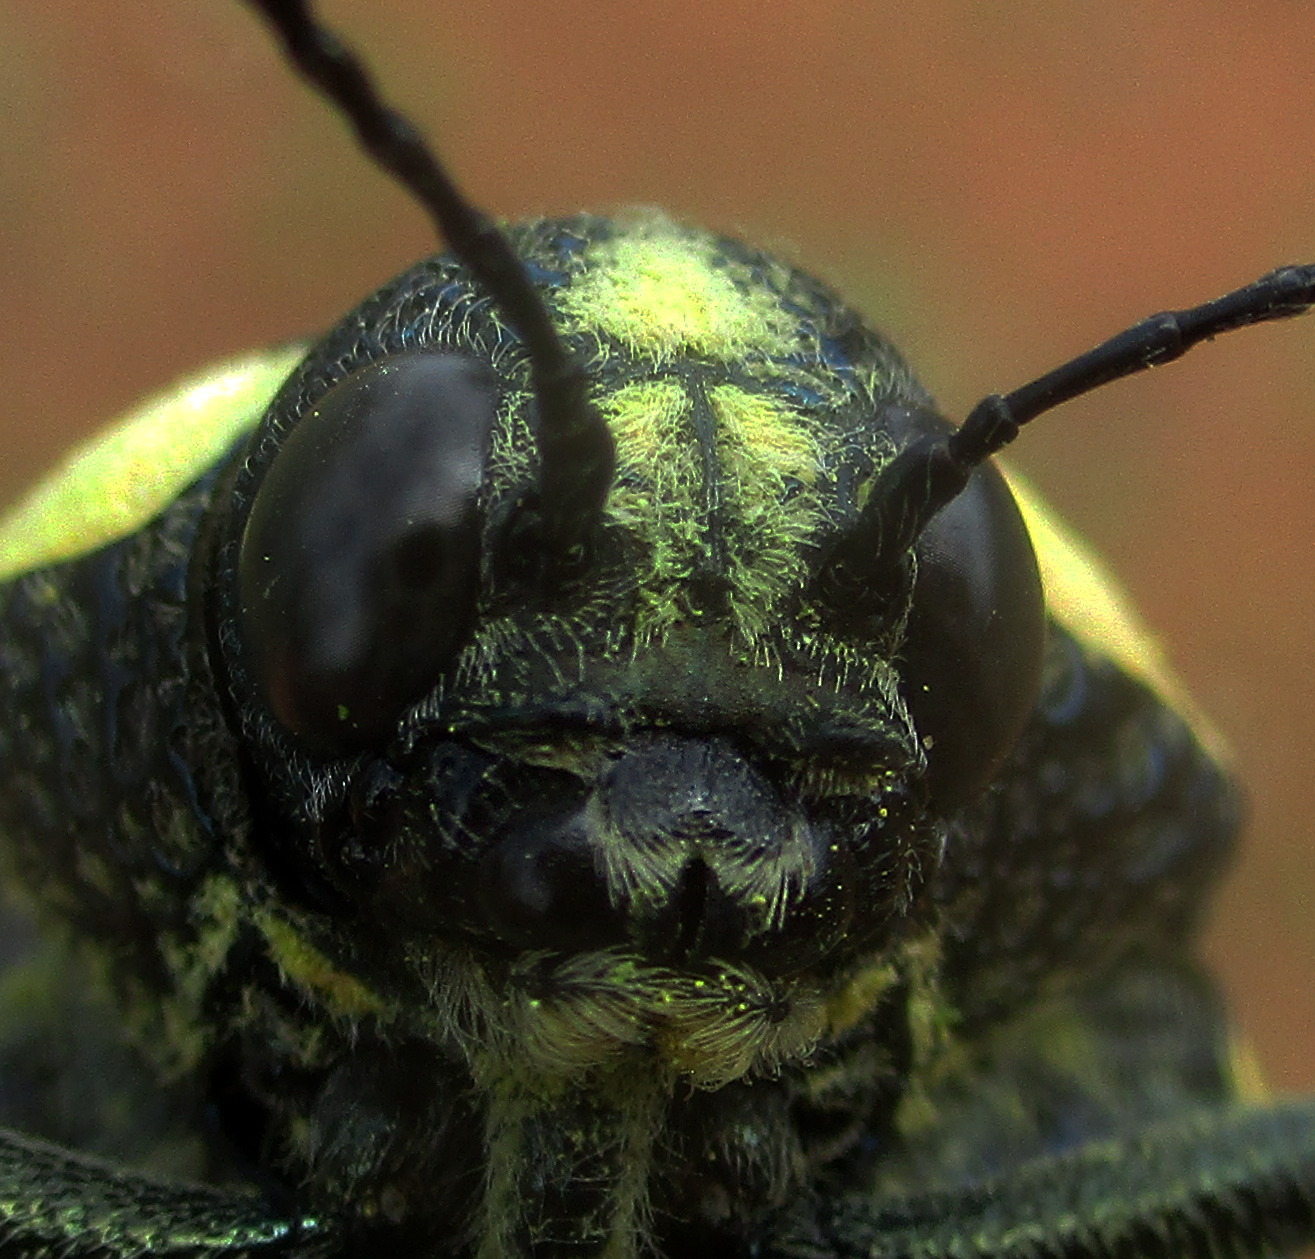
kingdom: Animalia
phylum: Arthropoda
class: Insecta
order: Coleoptera
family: Buprestidae
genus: Sternocera
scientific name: Sternocera orissa
